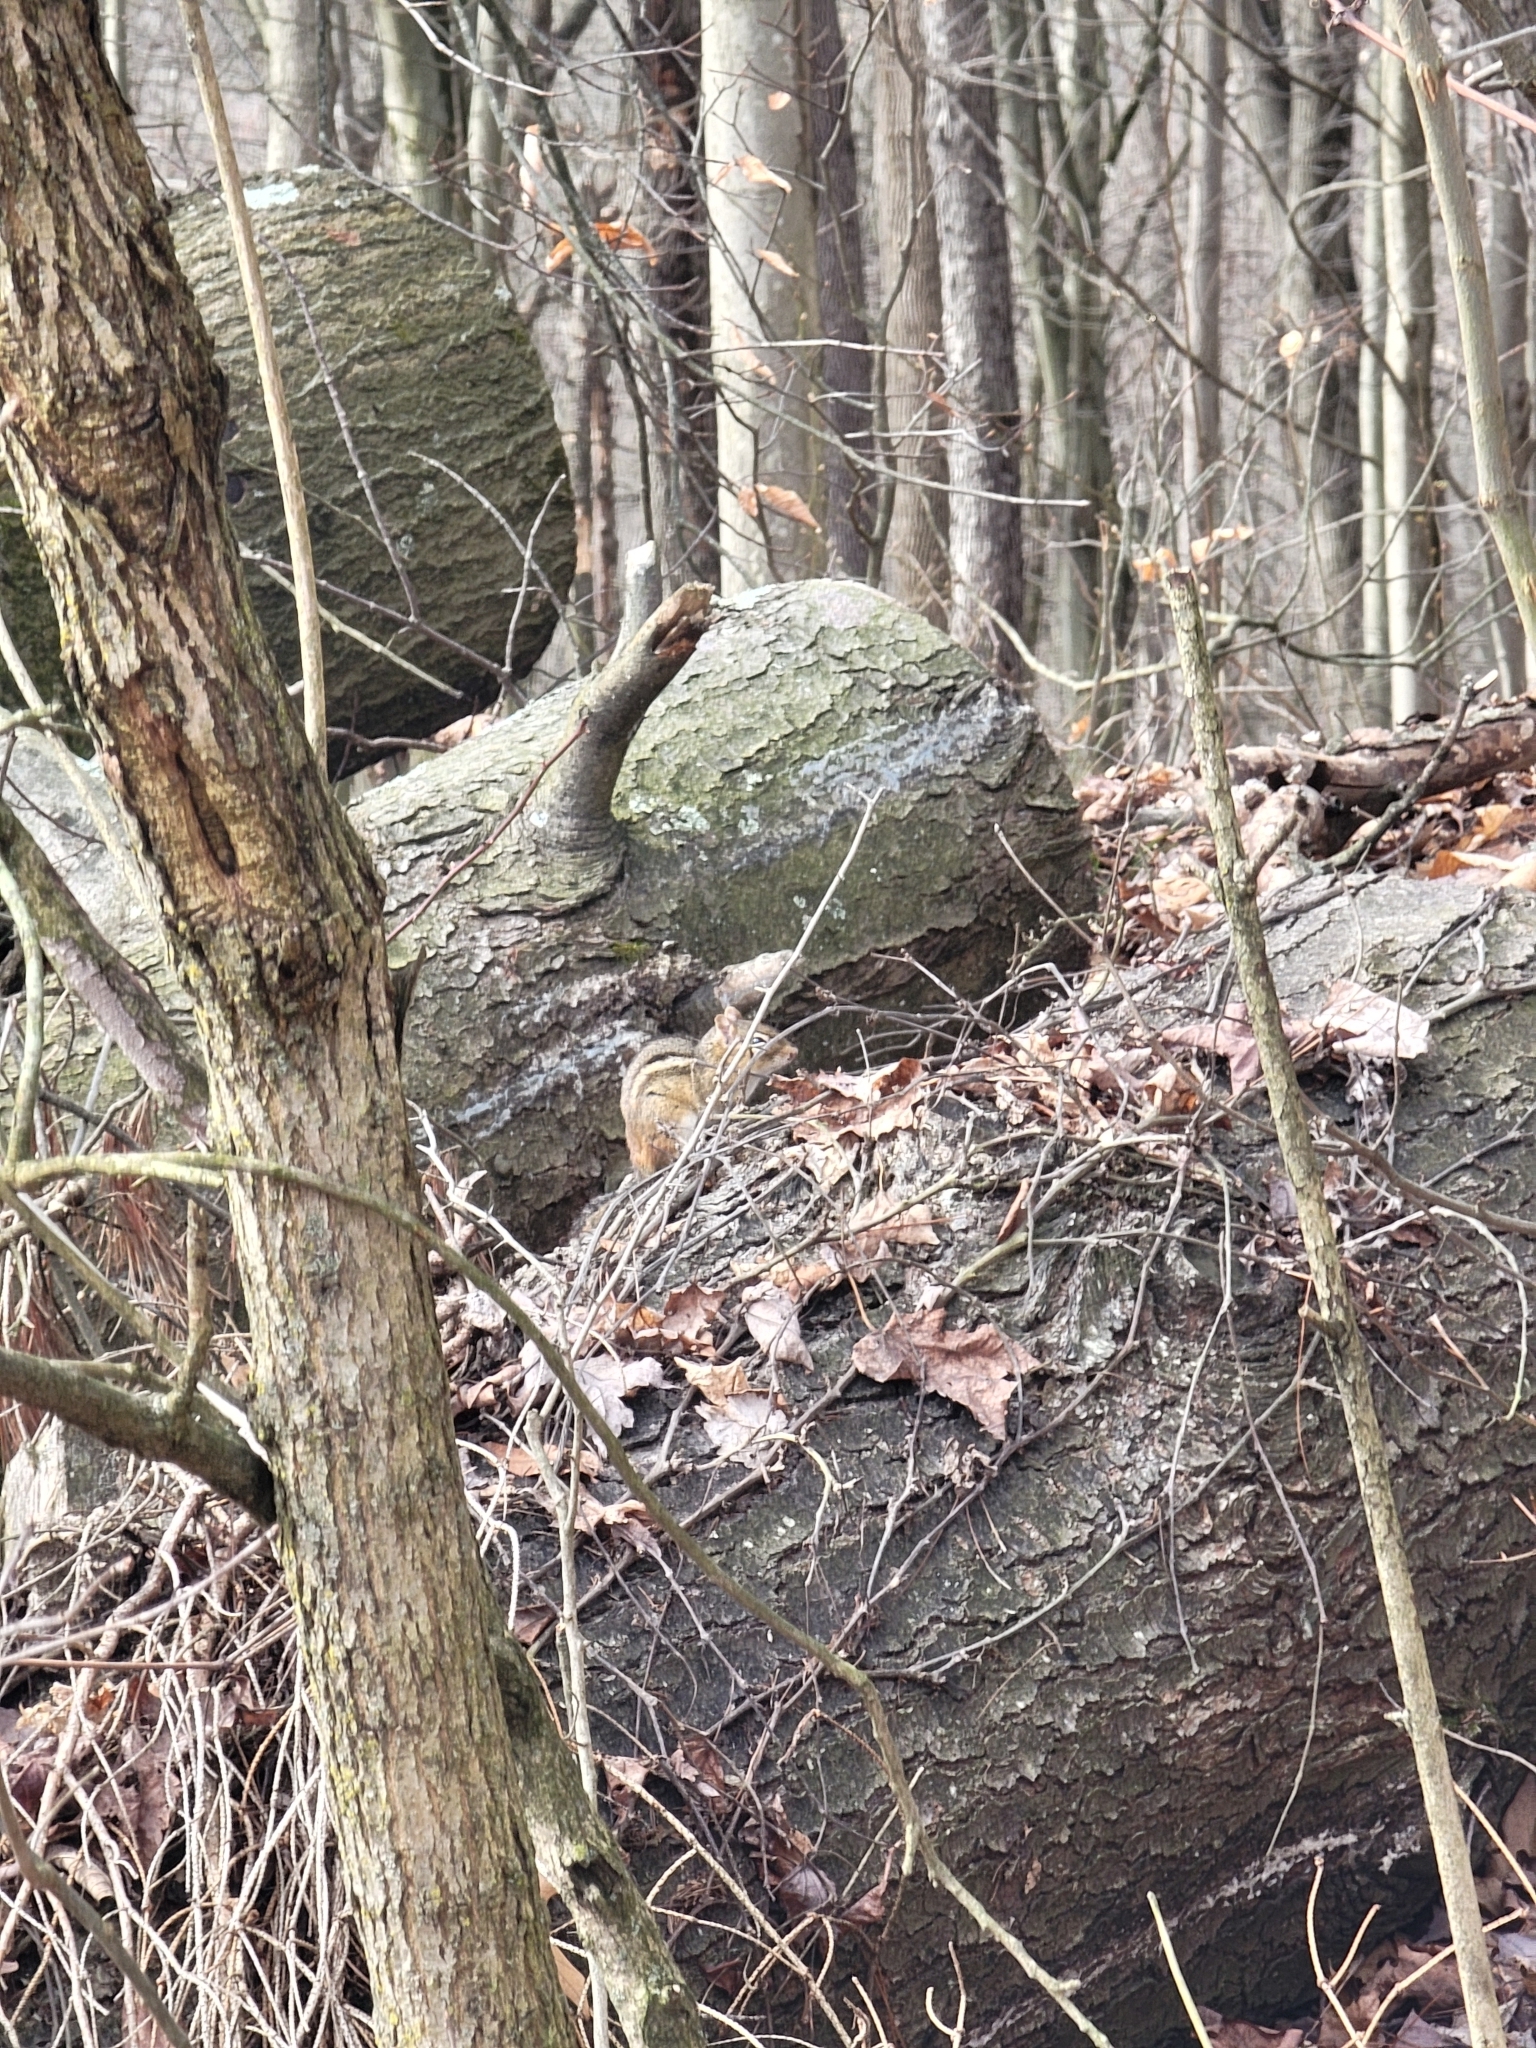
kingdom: Animalia
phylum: Chordata
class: Mammalia
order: Rodentia
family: Sciuridae
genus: Tamias
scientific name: Tamias striatus
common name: Eastern chipmunk
